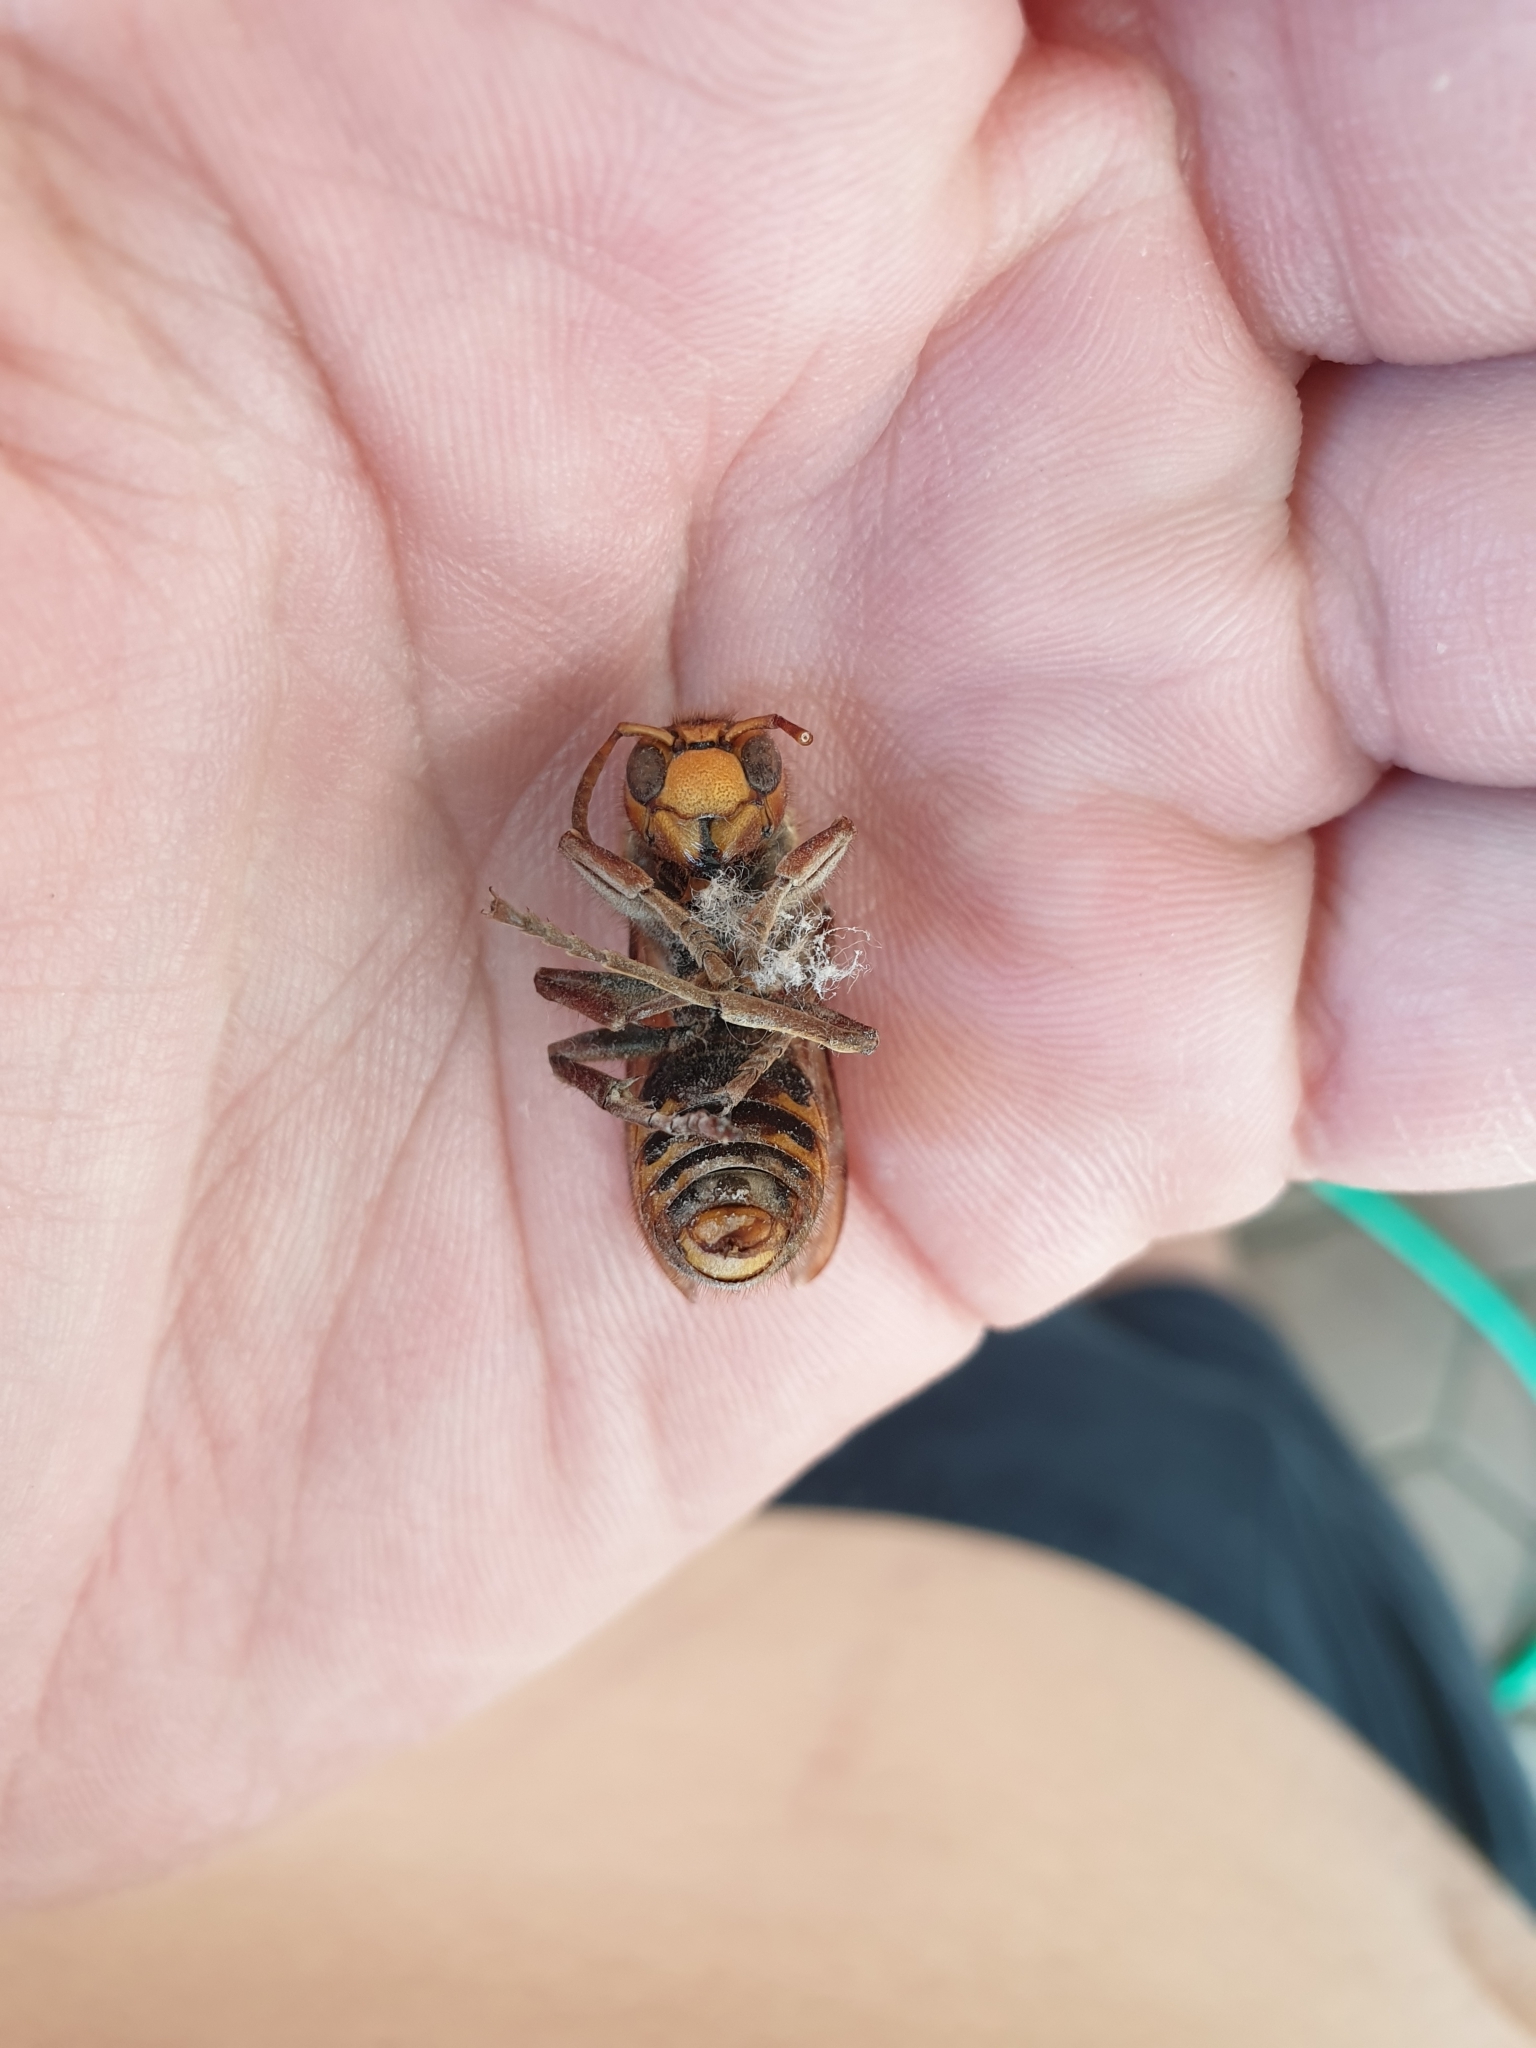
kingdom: Animalia
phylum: Arthropoda
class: Insecta
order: Hymenoptera
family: Vespidae
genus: Vespa
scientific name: Vespa crabro
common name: Hornet
